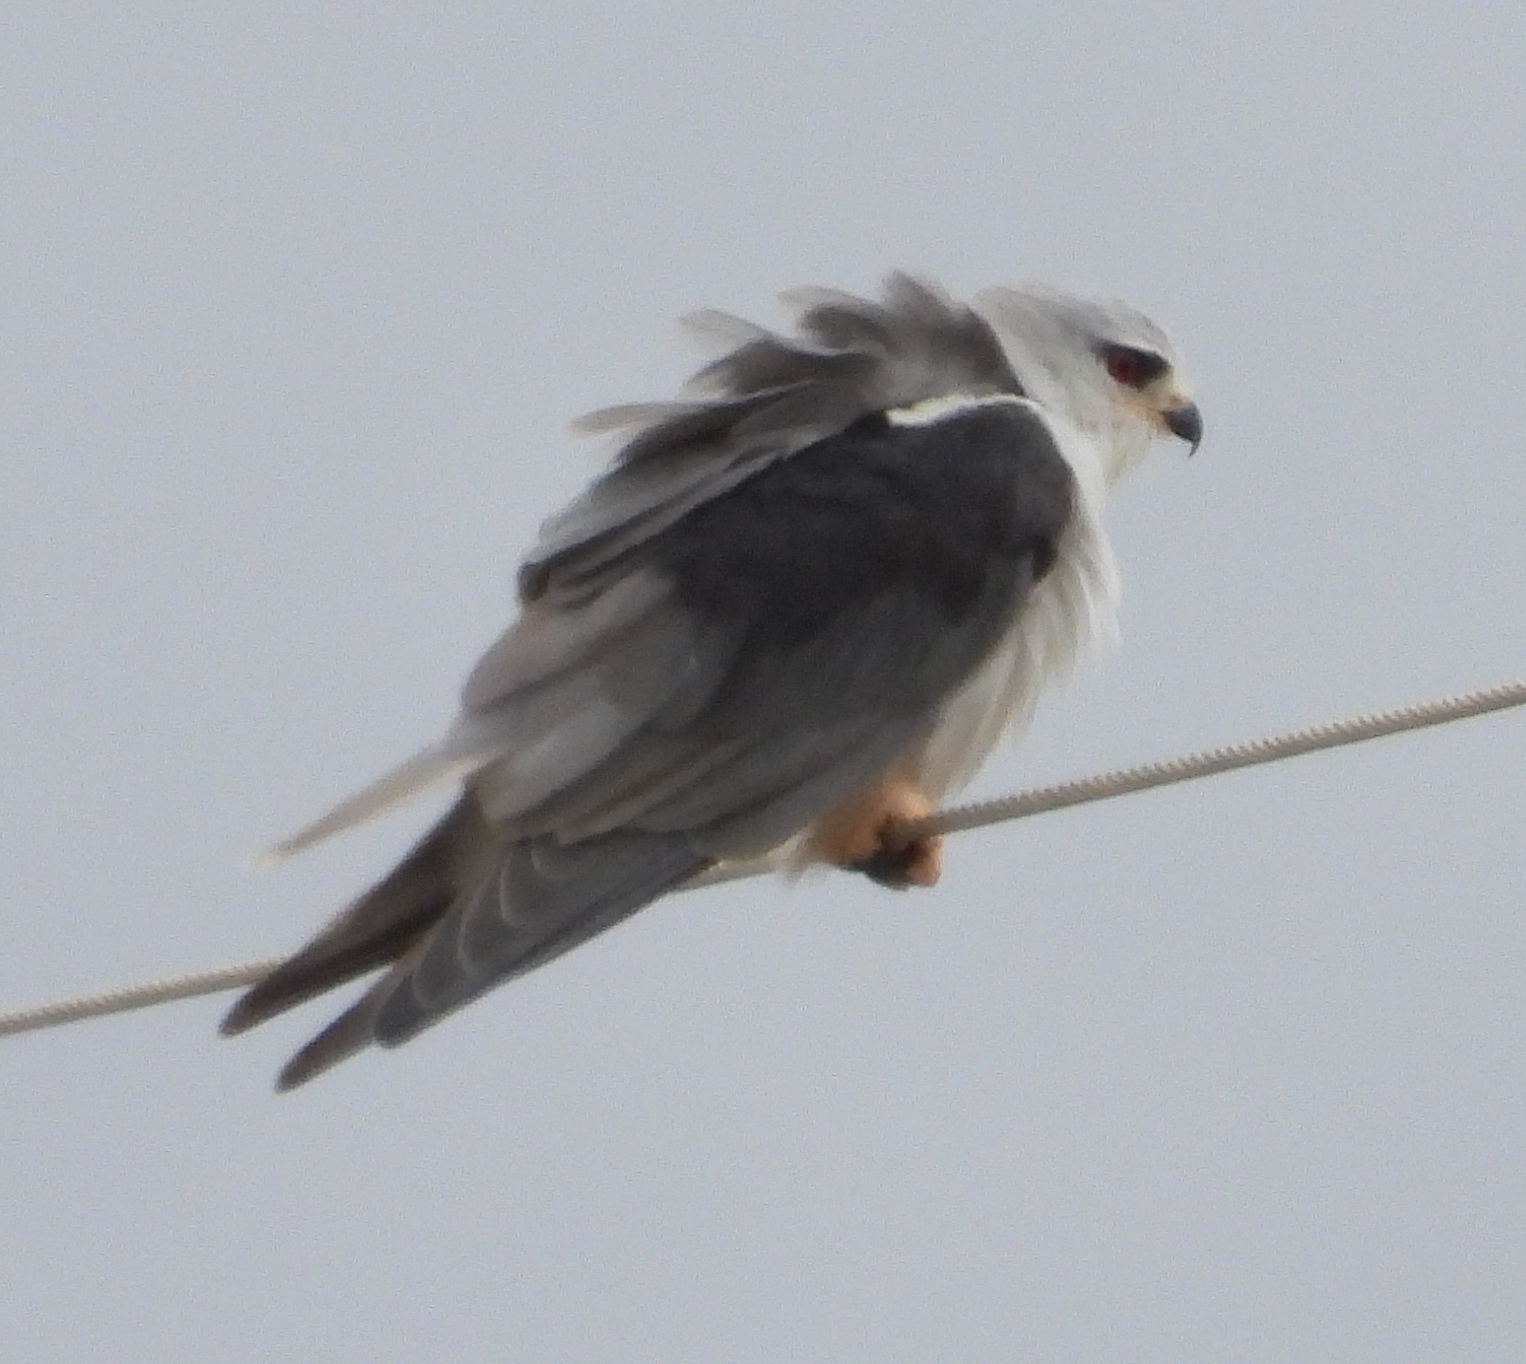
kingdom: Animalia
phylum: Chordata
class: Aves
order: Accipitriformes
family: Accipitridae
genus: Elanus
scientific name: Elanus caeruleus
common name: Black-winged kite
